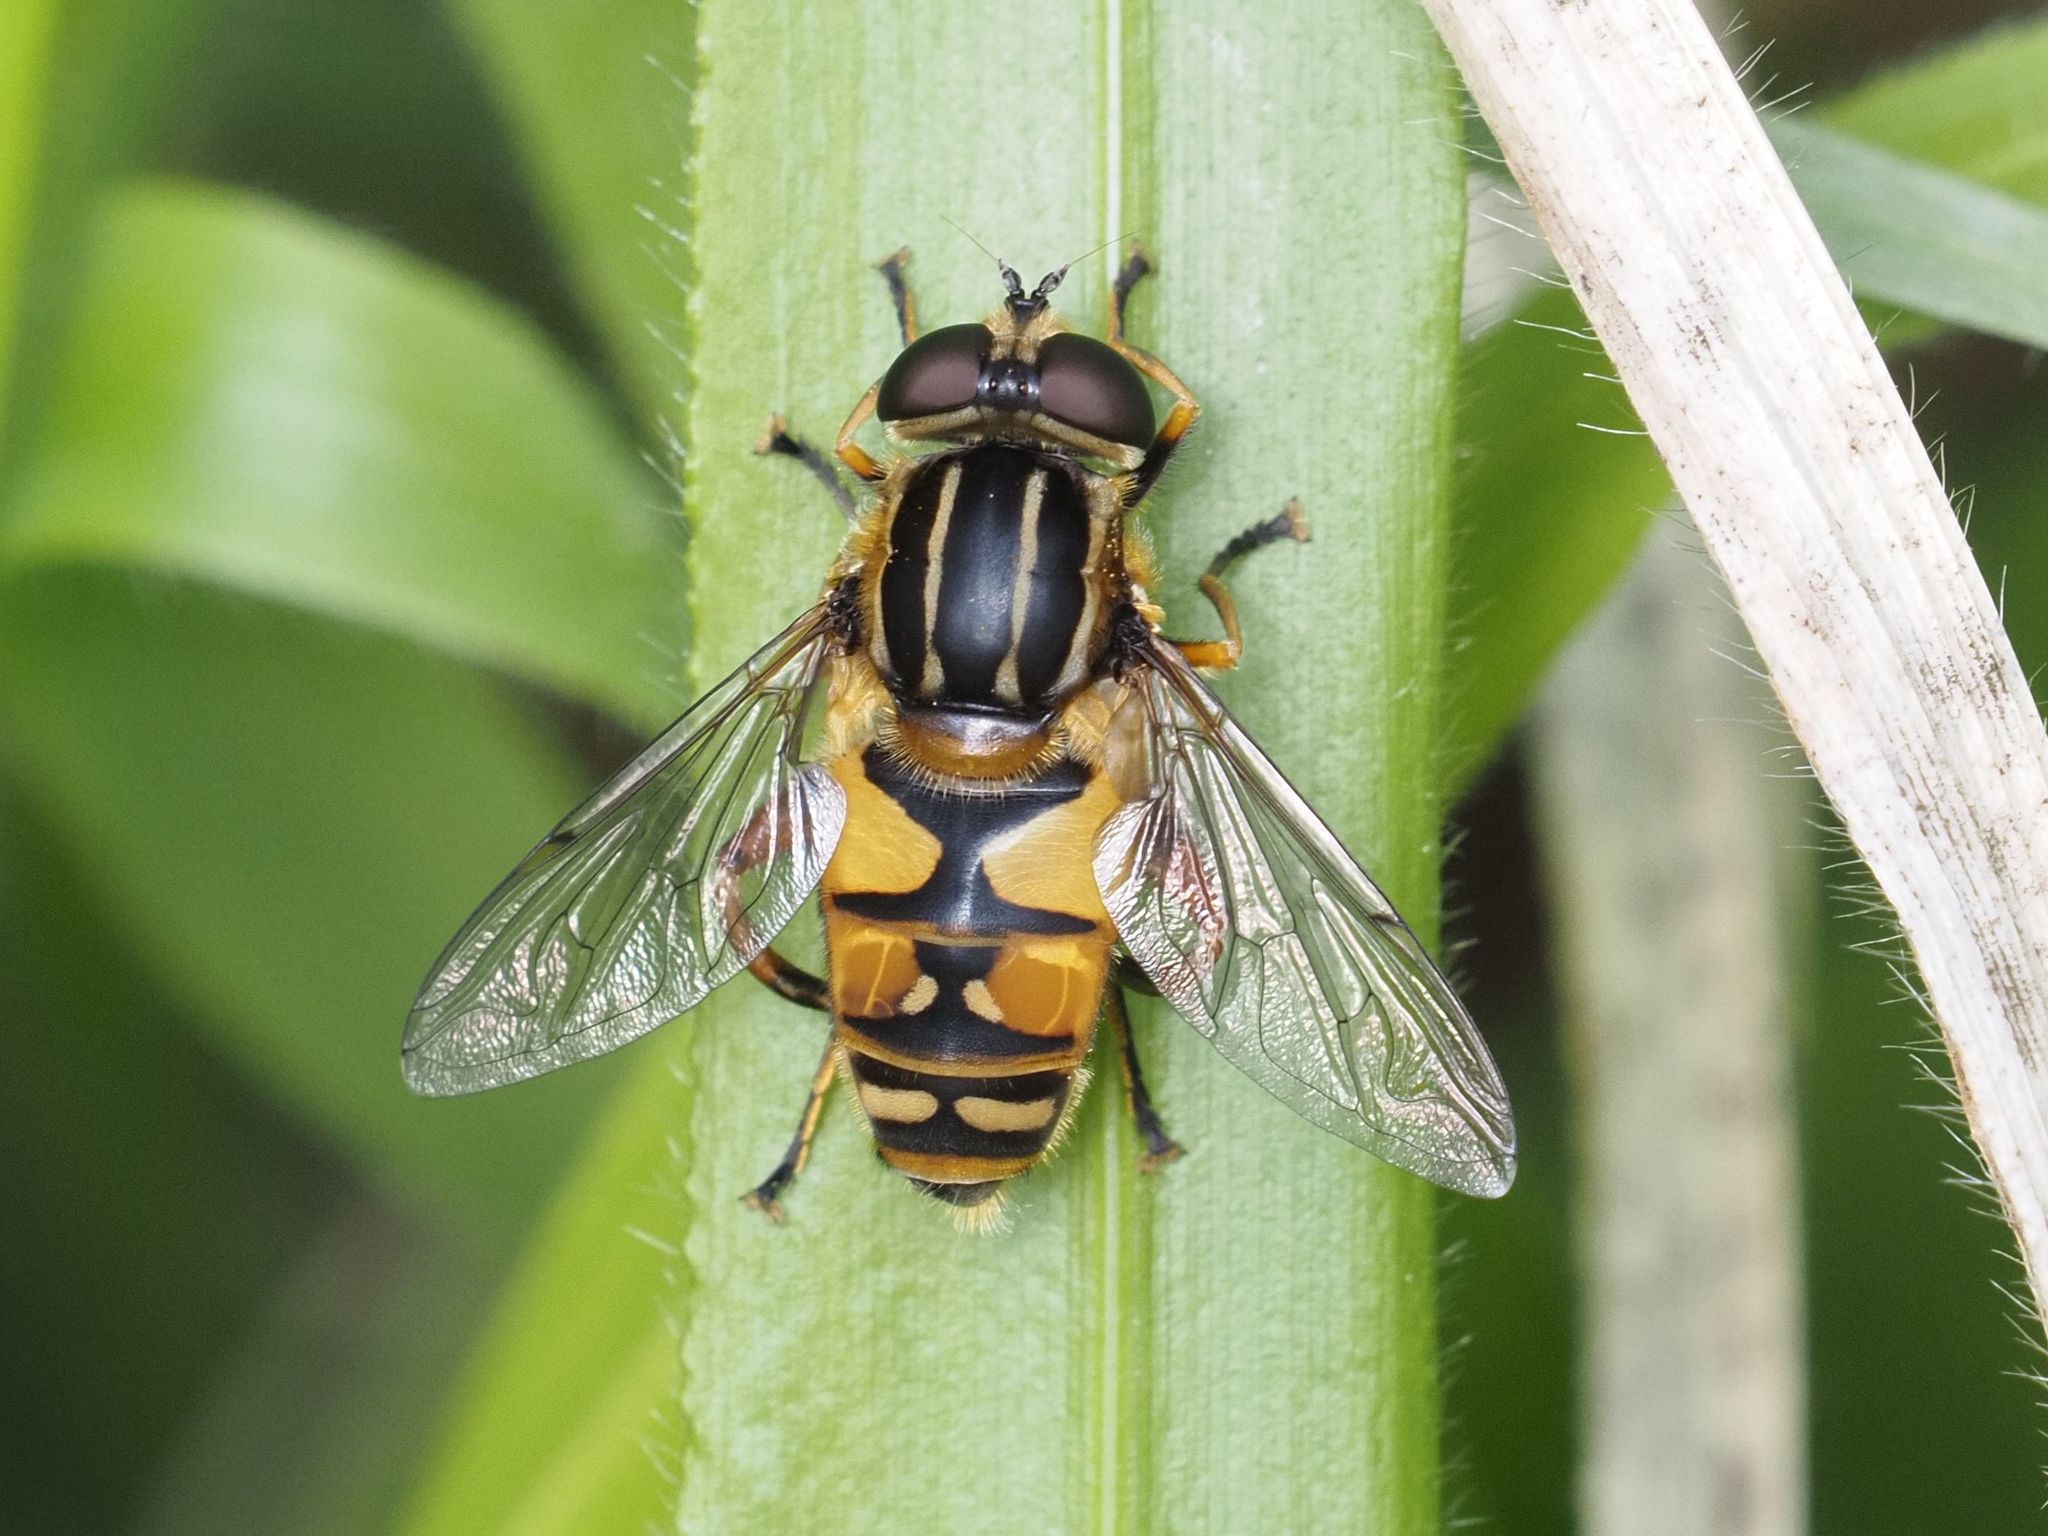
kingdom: Animalia
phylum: Arthropoda
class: Insecta
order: Diptera
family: Syrphidae
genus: Helophilus
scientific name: Helophilus pendulus
